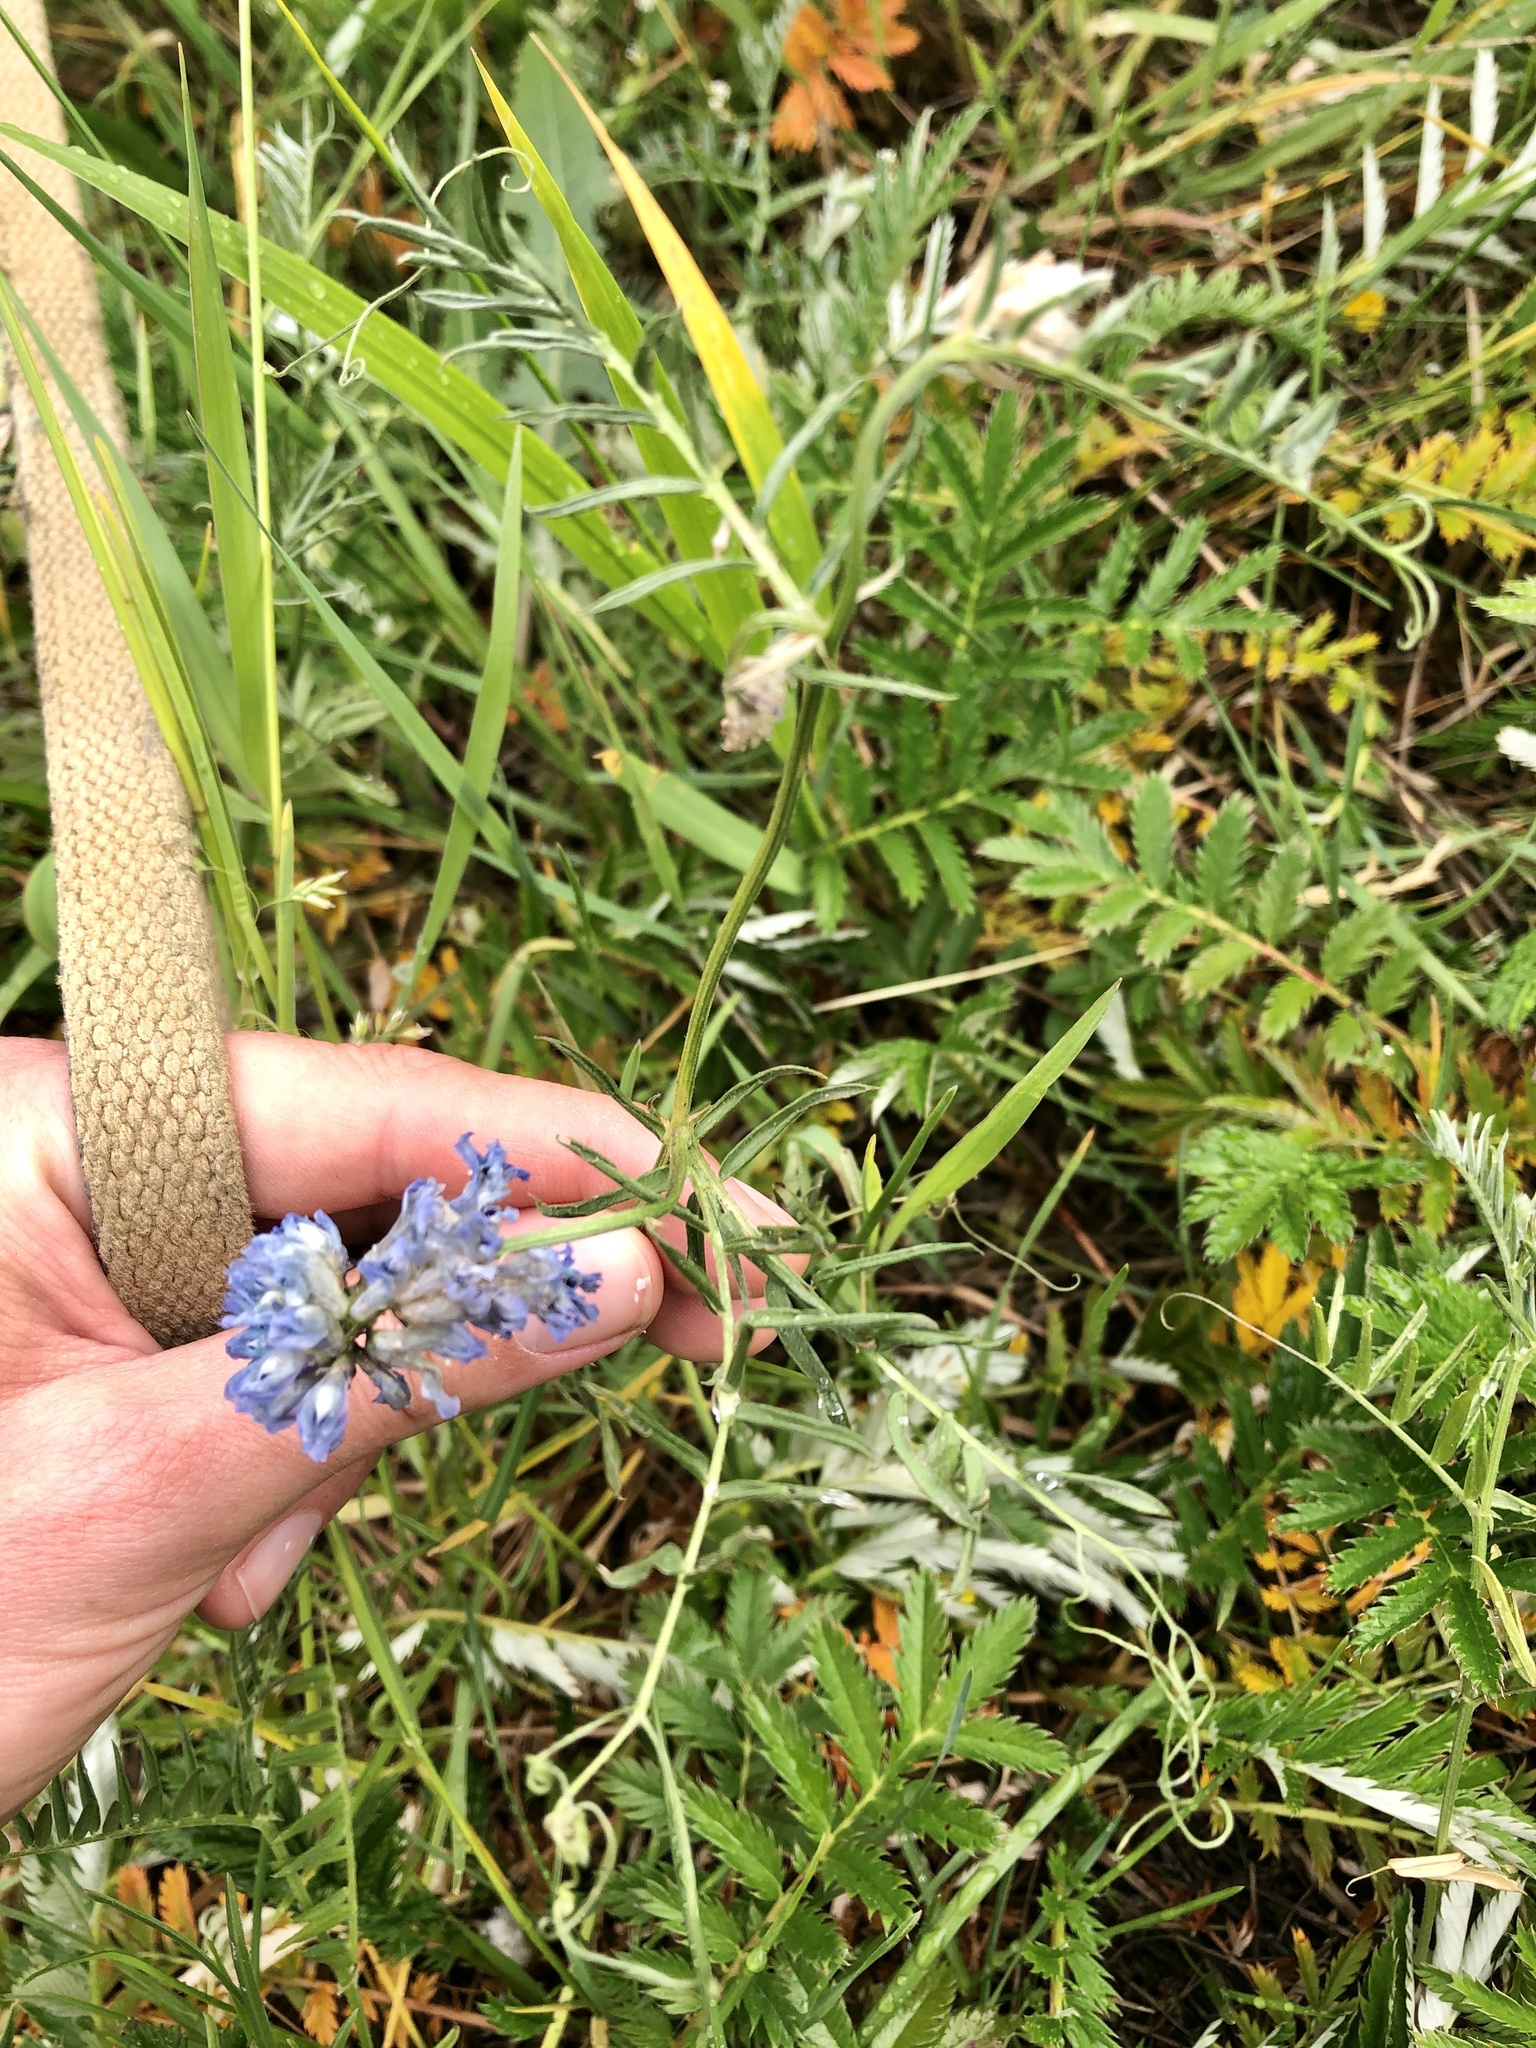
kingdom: Plantae
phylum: Tracheophyta
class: Magnoliopsida
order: Fabales
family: Fabaceae
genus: Vicia
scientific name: Vicia cracca
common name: Bird vetch
